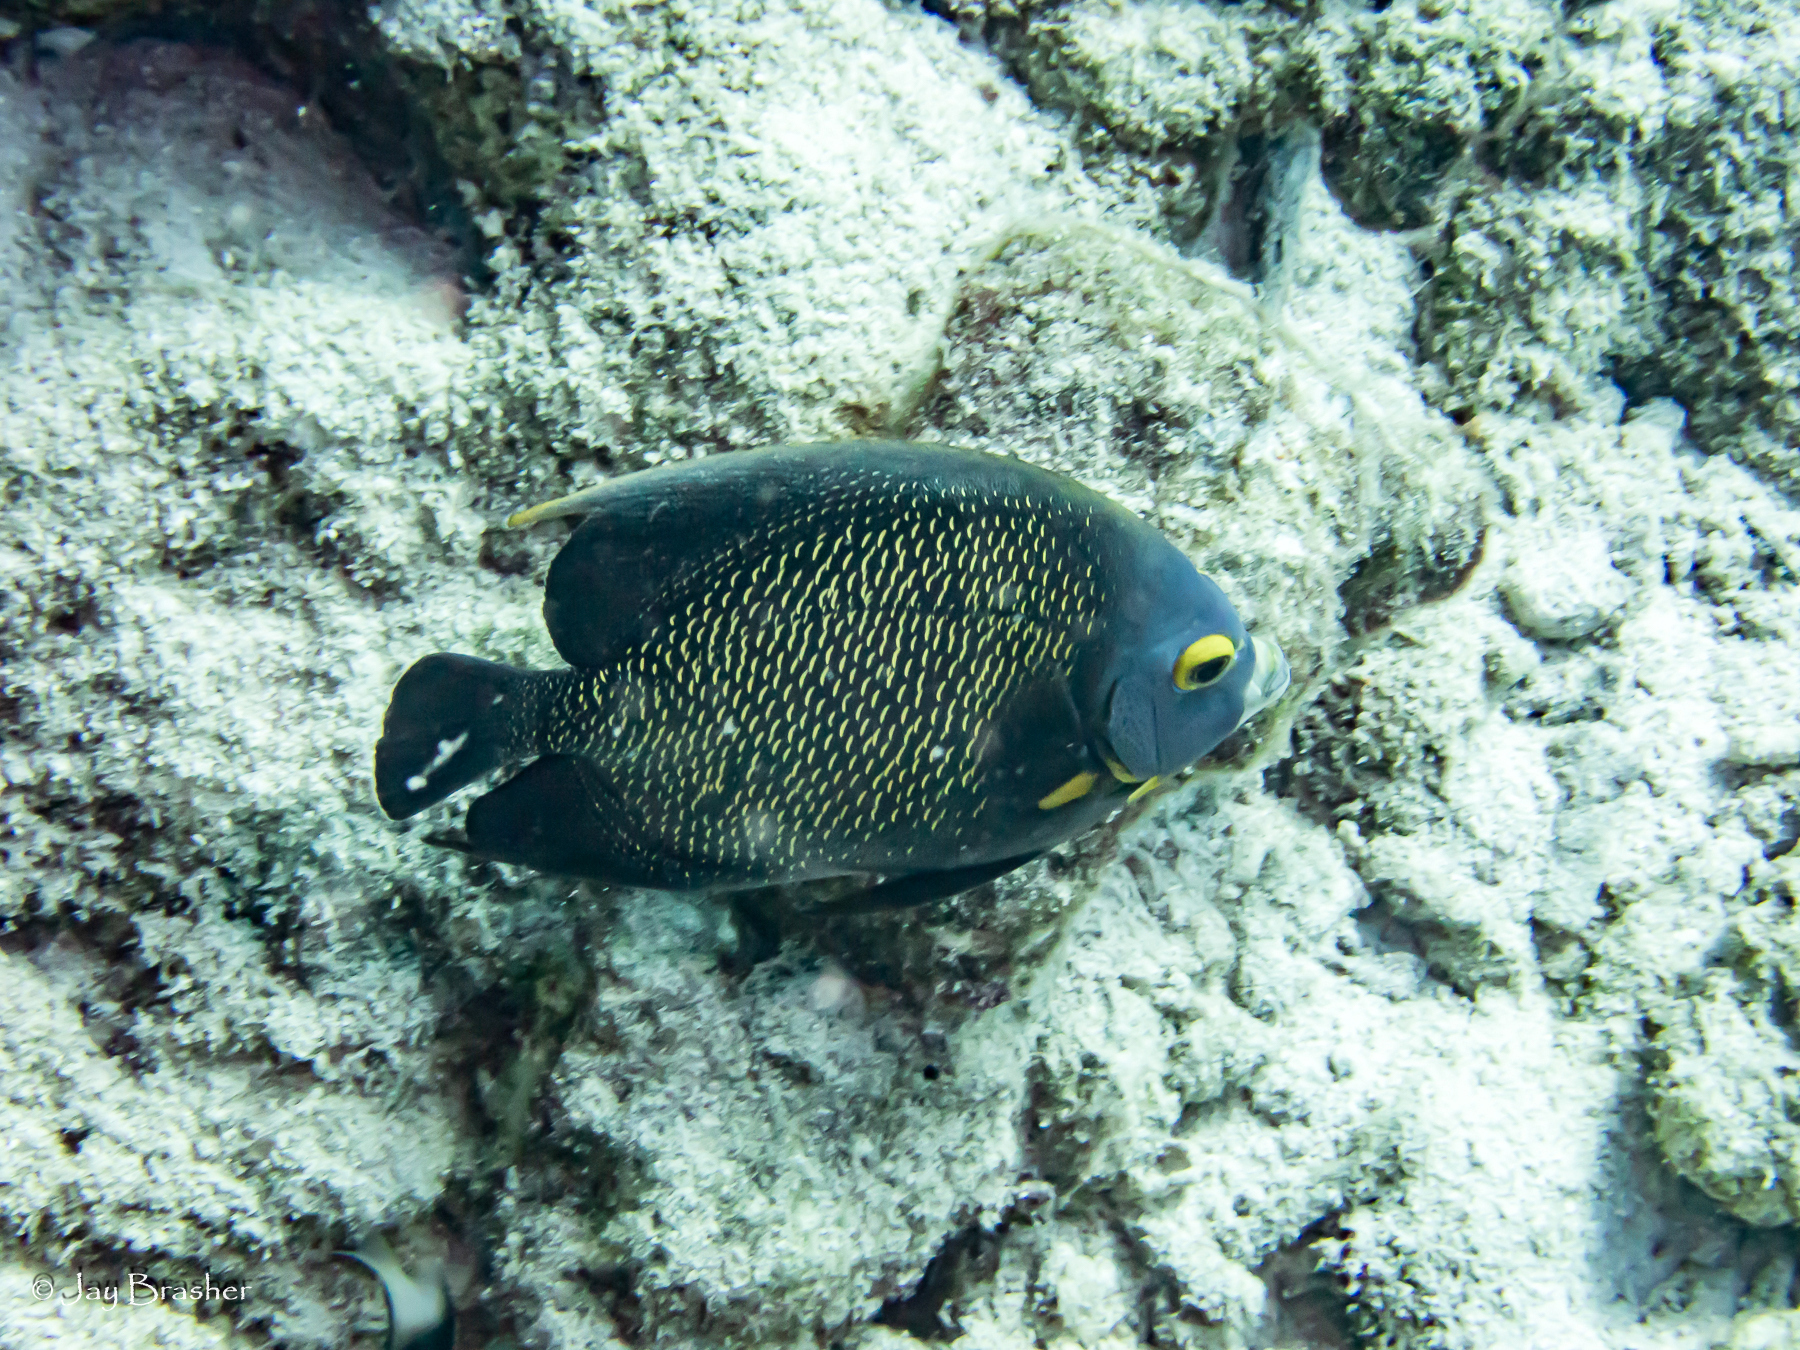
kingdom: Animalia
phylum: Chordata
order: Perciformes
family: Pomacanthidae
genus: Pomacanthus
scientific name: Pomacanthus paru
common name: French angelfish
